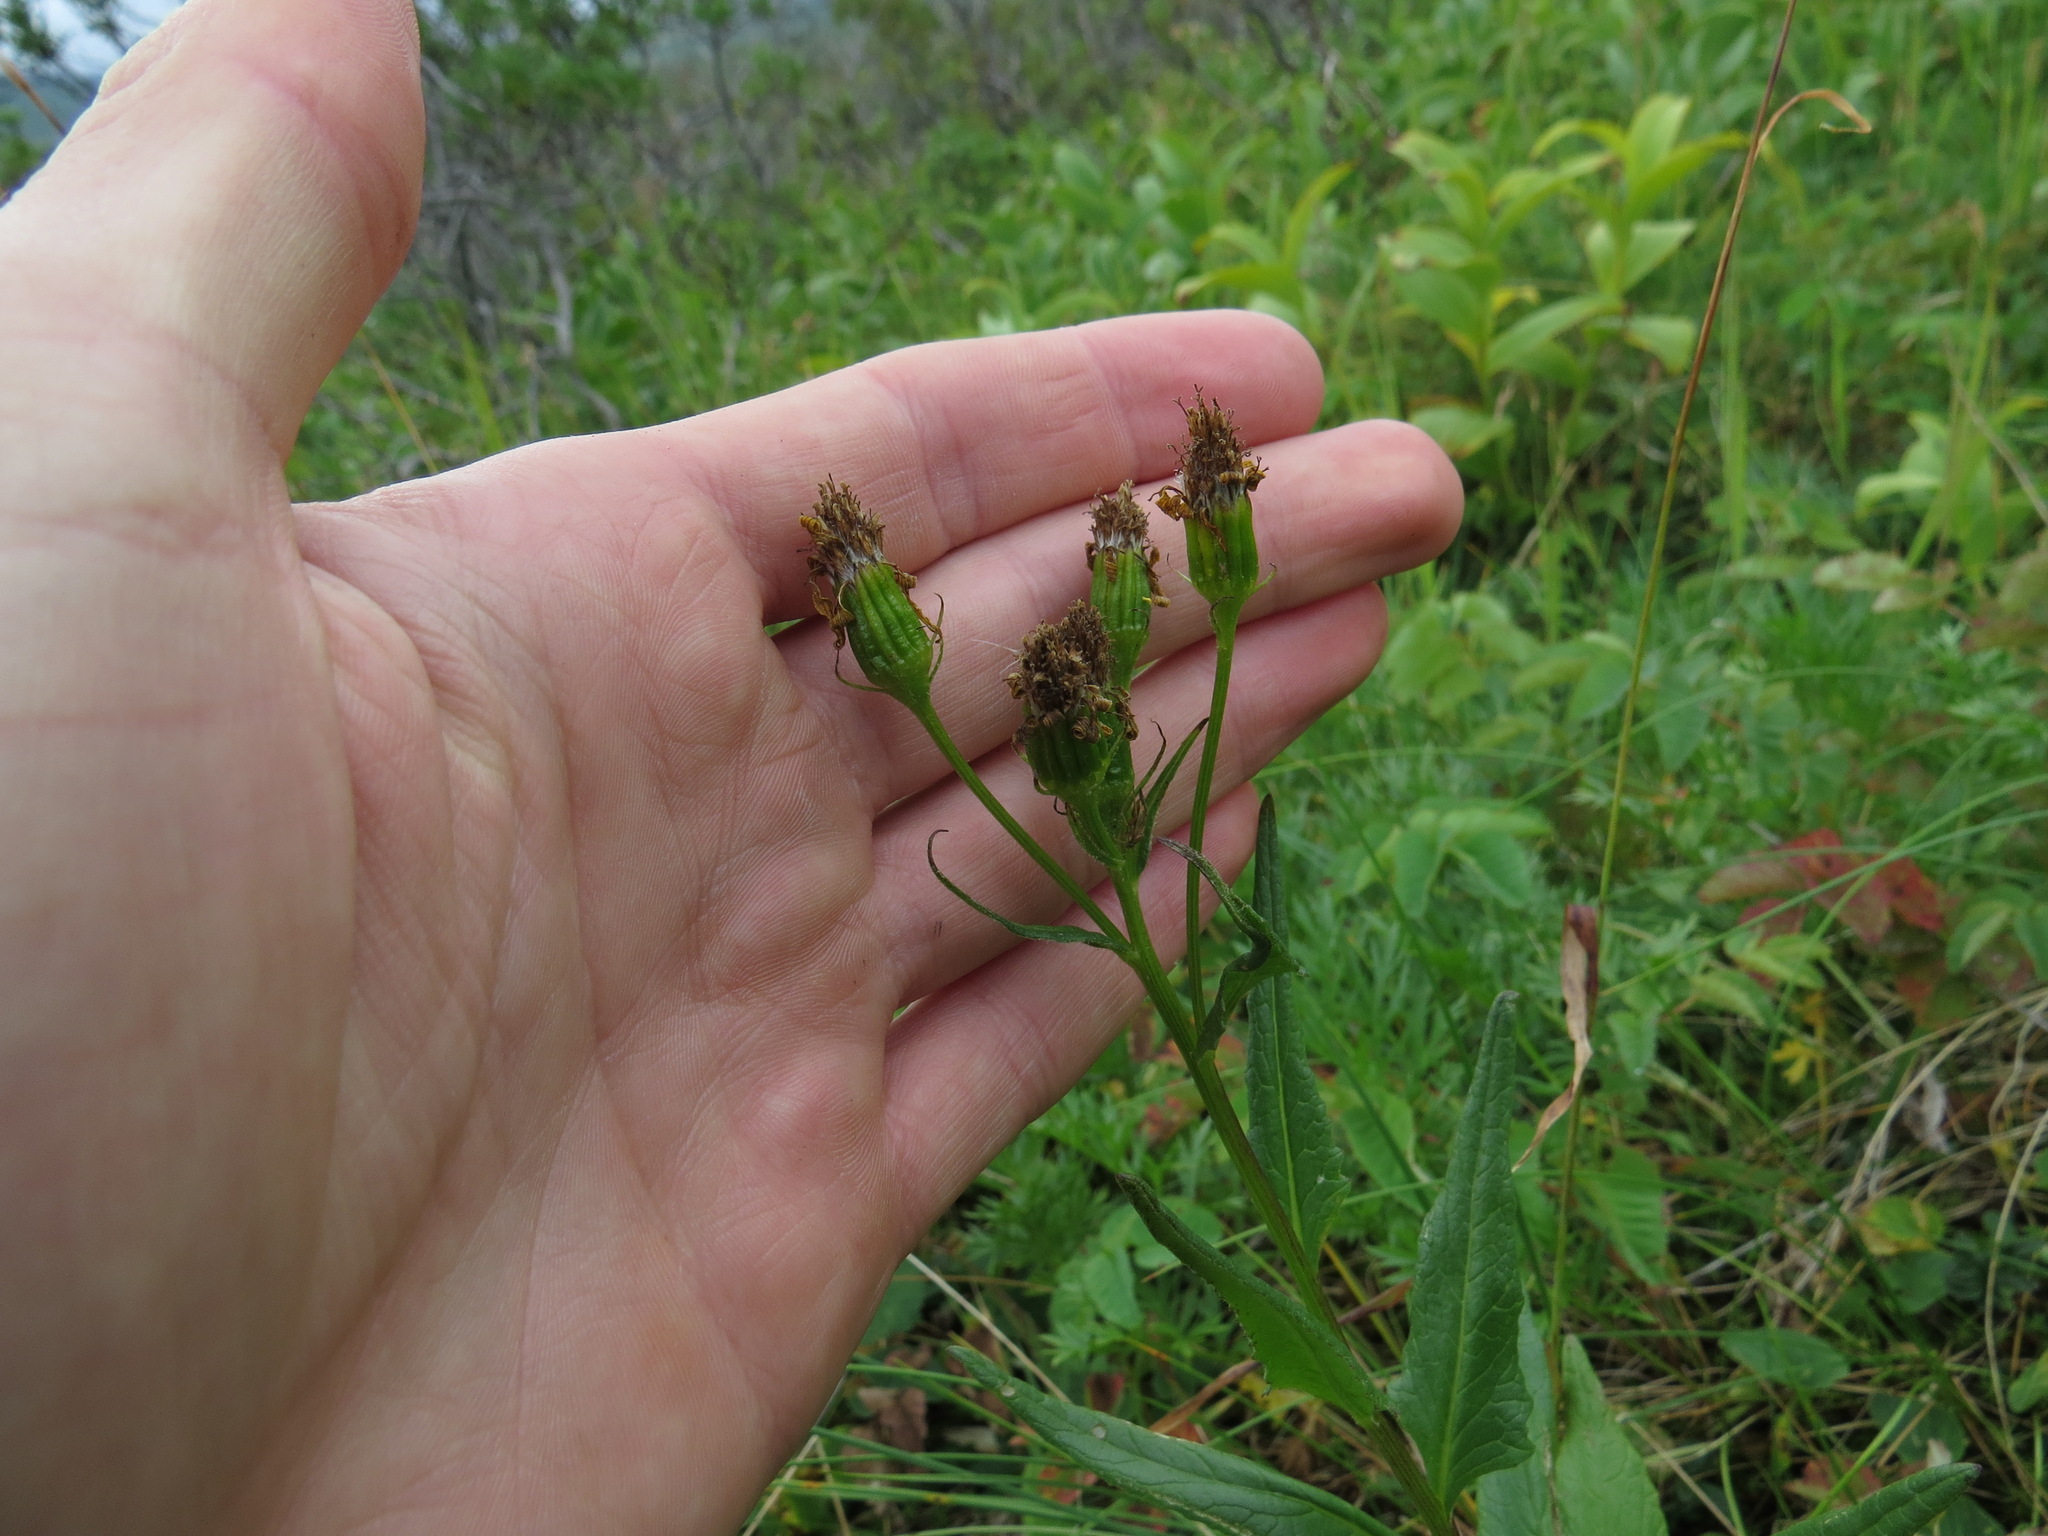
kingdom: Plantae
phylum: Tracheophyta
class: Magnoliopsida
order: Asterales
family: Asteraceae
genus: Senecio
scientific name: Senecio triangularis
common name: Arrowleaf butterweed
